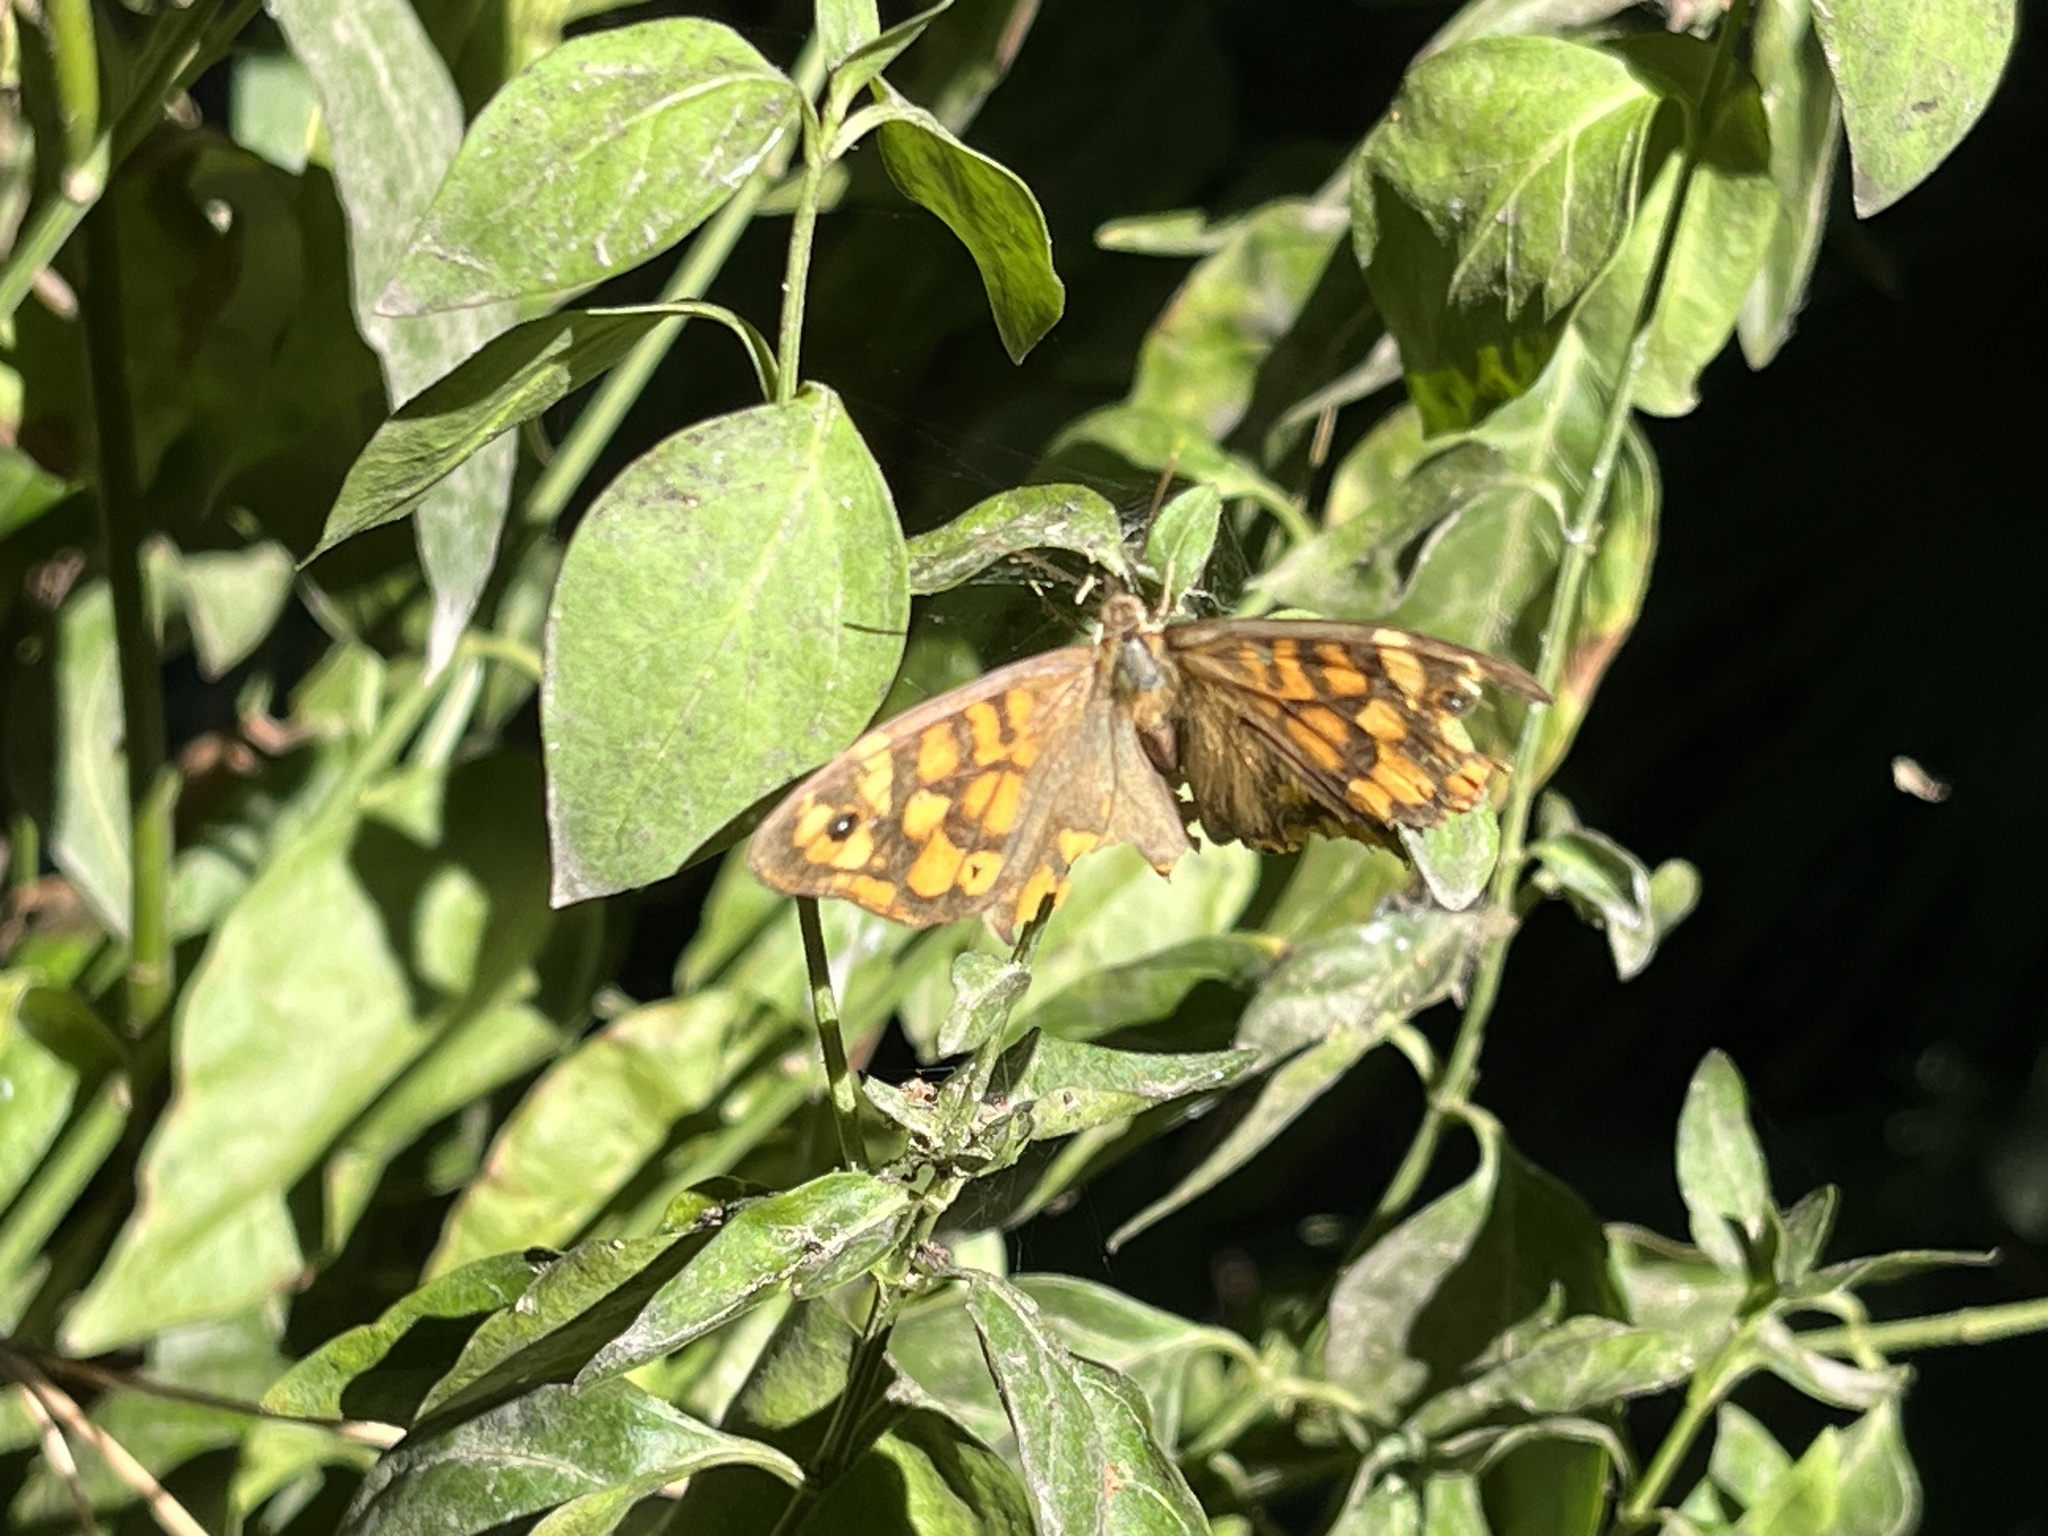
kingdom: Animalia
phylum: Arthropoda
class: Insecta
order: Lepidoptera
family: Nymphalidae
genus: Pararge
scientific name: Pararge aegeria
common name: Speckled wood
